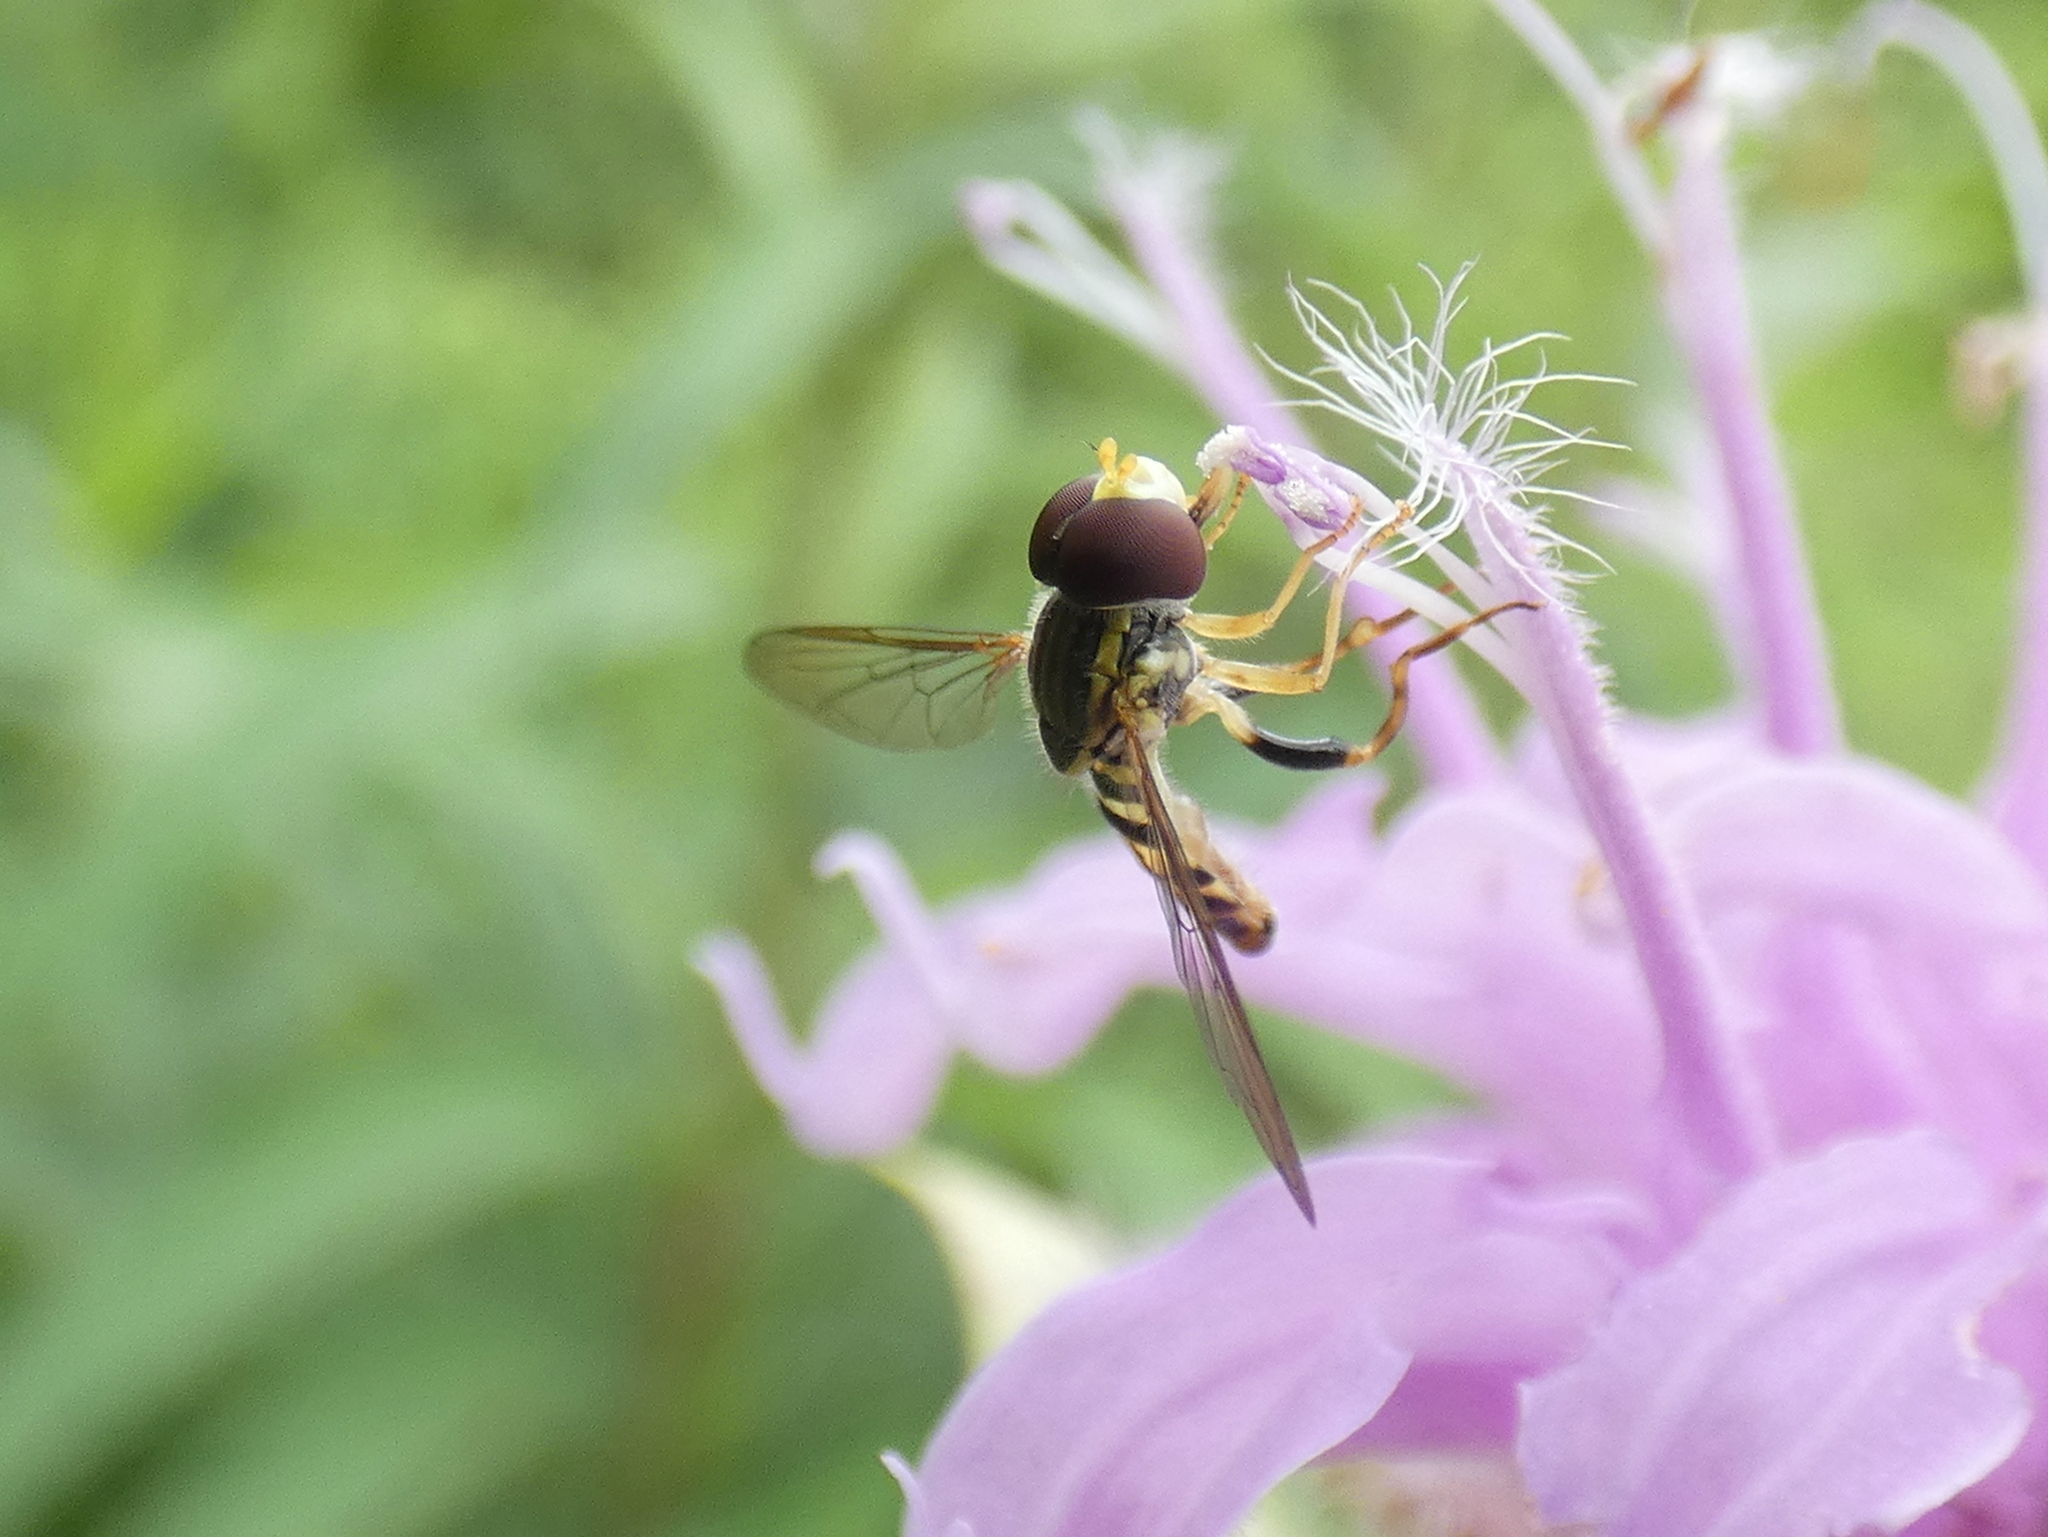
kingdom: Animalia
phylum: Arthropoda
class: Insecta
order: Diptera
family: Syrphidae
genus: Toxomerus
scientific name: Toxomerus geminatus
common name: Eastern calligrapher
